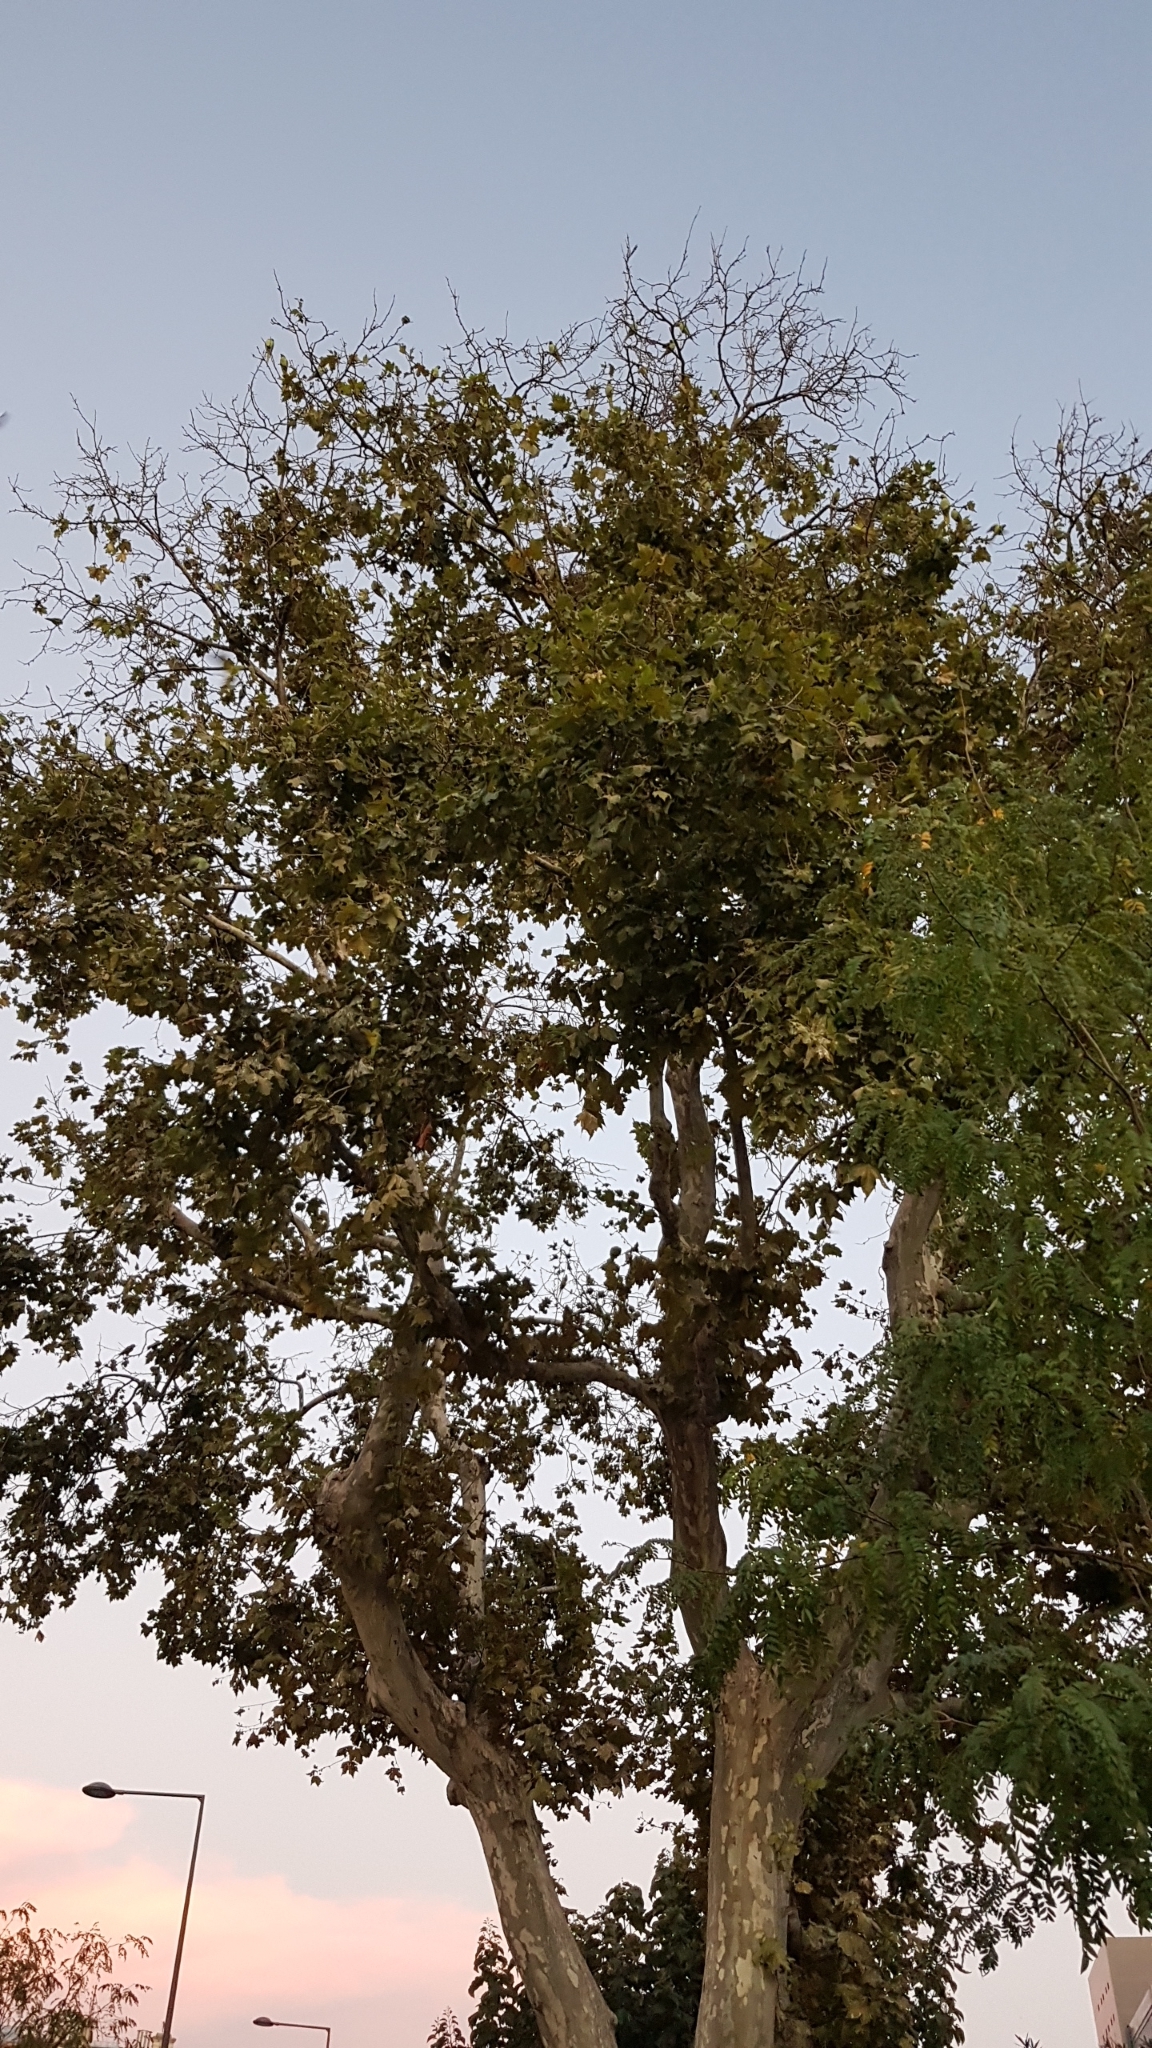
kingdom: Animalia
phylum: Chordata
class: Aves
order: Psittaciformes
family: Psittacidae
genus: Psittacula
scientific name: Psittacula krameri
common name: Rose-ringed parakeet
